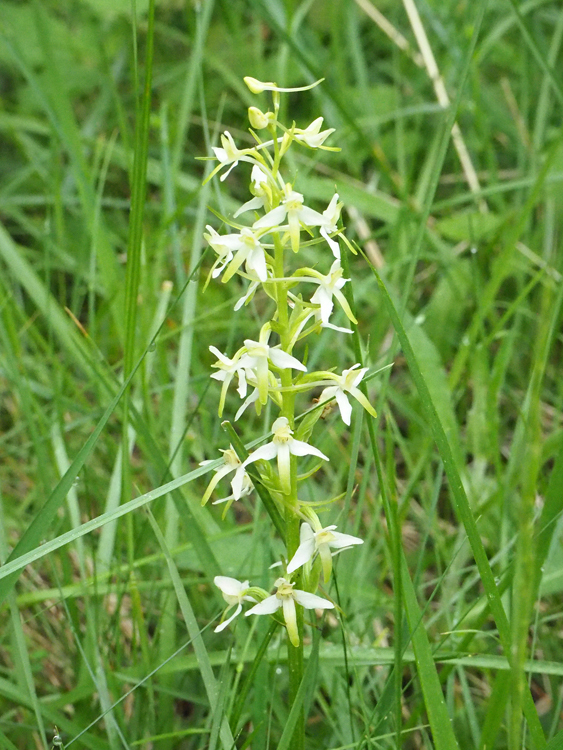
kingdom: Plantae
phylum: Tracheophyta
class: Liliopsida
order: Asparagales
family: Orchidaceae
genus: Platanthera
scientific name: Platanthera bifolia
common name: Lesser butterfly-orchid
